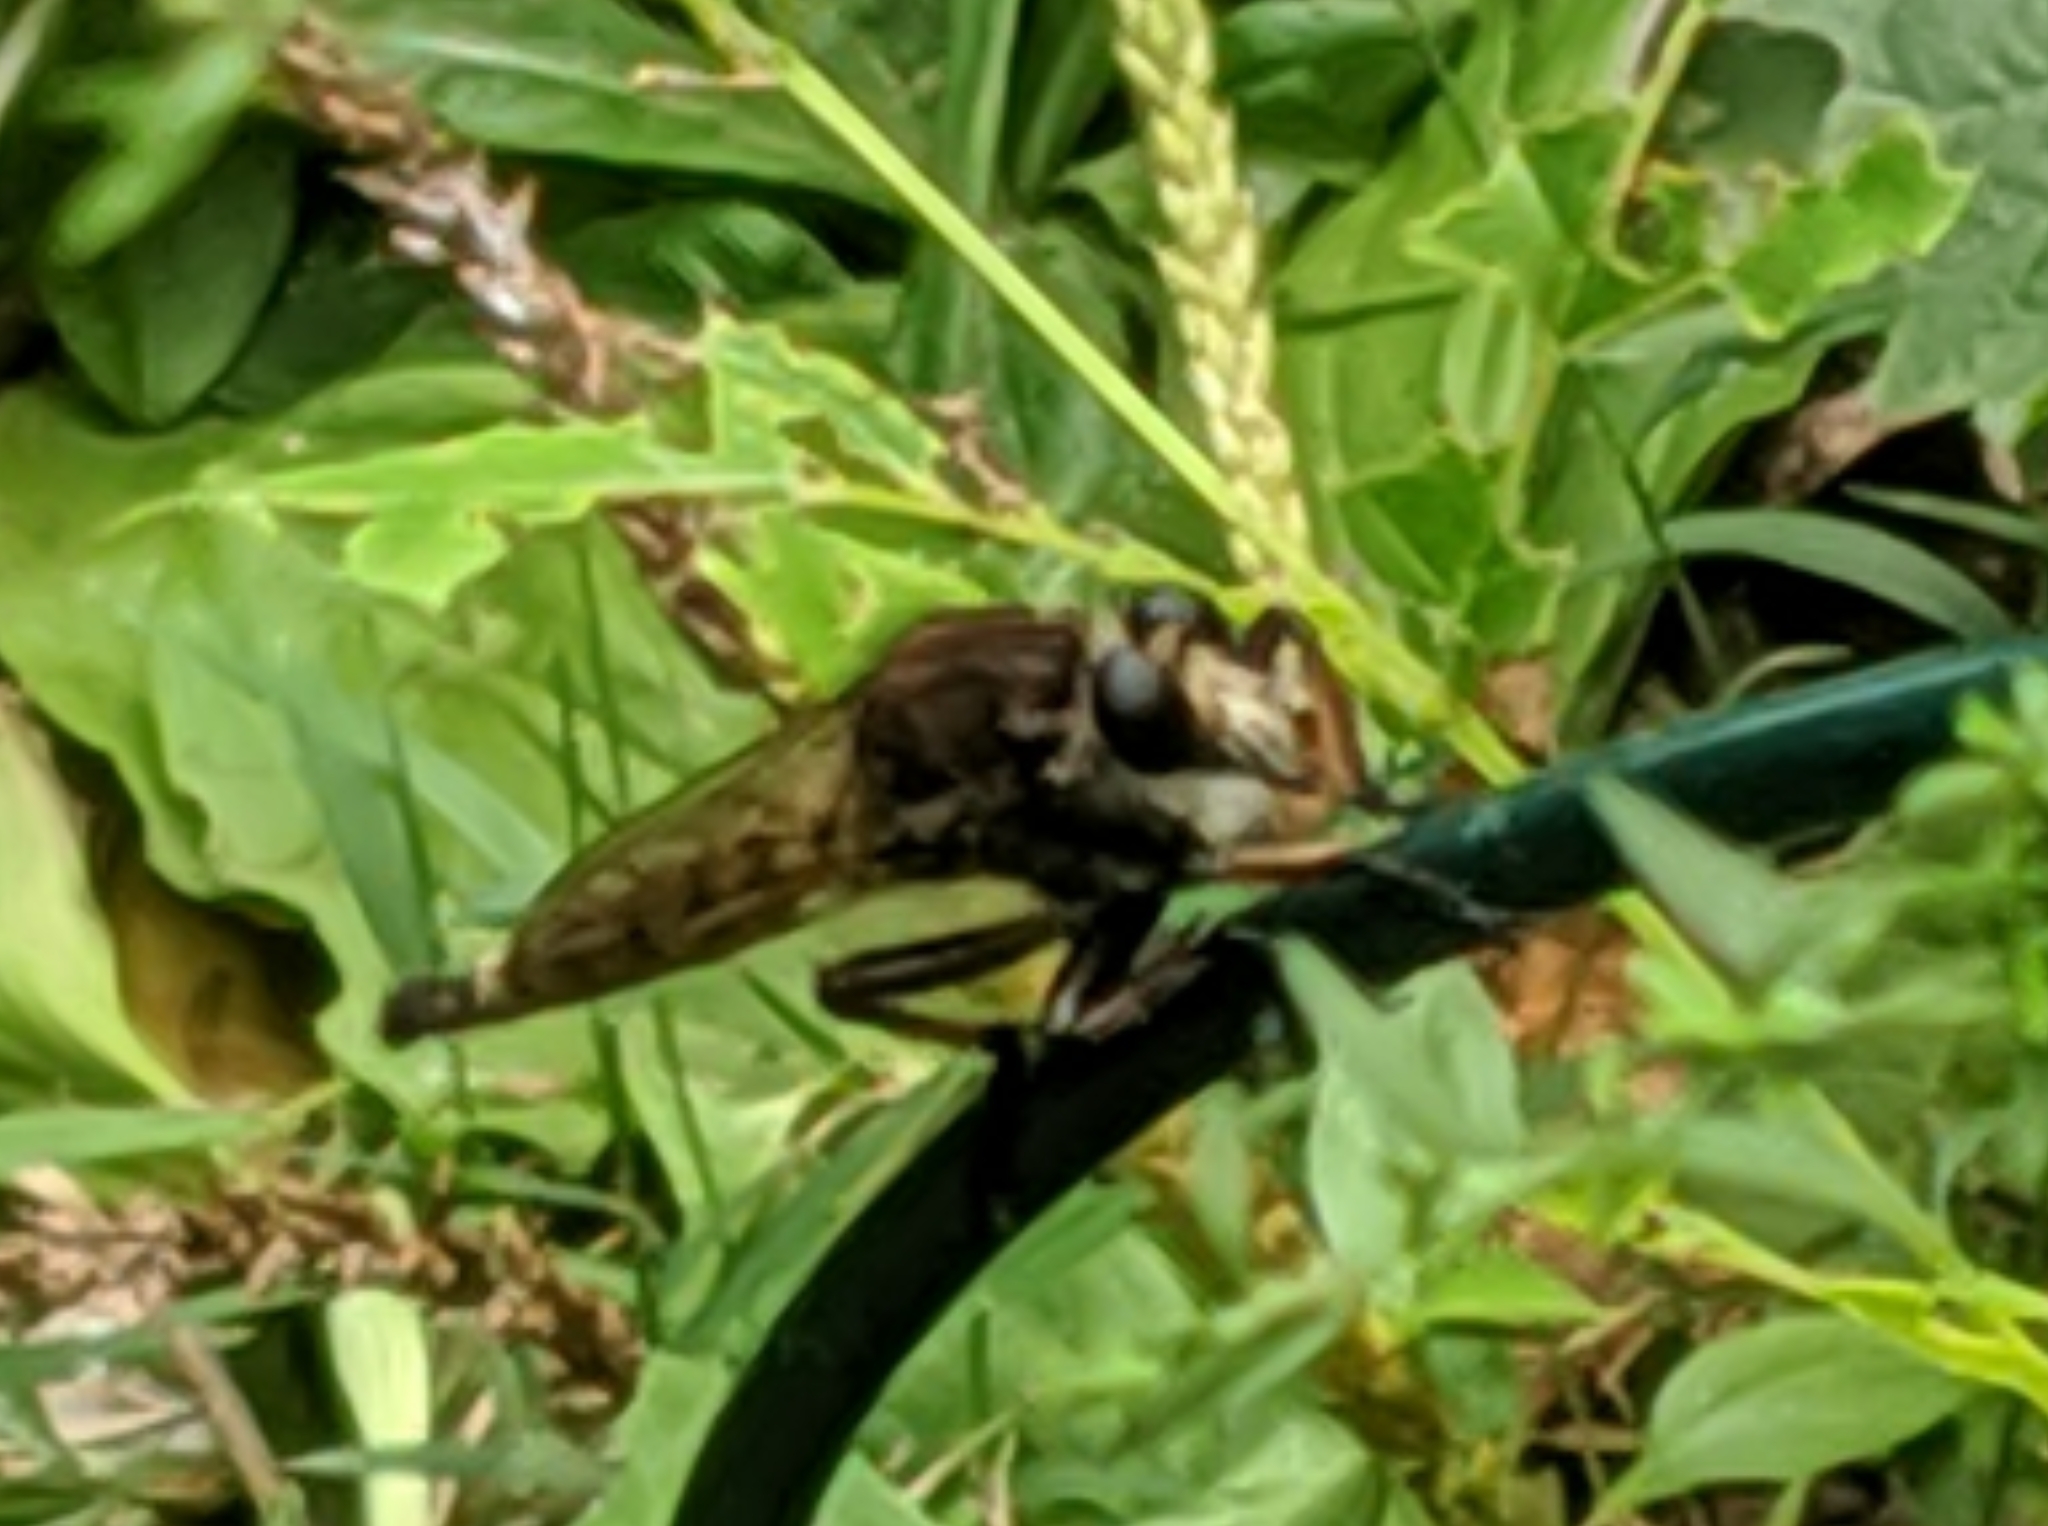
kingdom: Animalia
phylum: Arthropoda
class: Insecta
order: Diptera
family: Asilidae
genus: Promachus
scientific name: Promachus hinei
